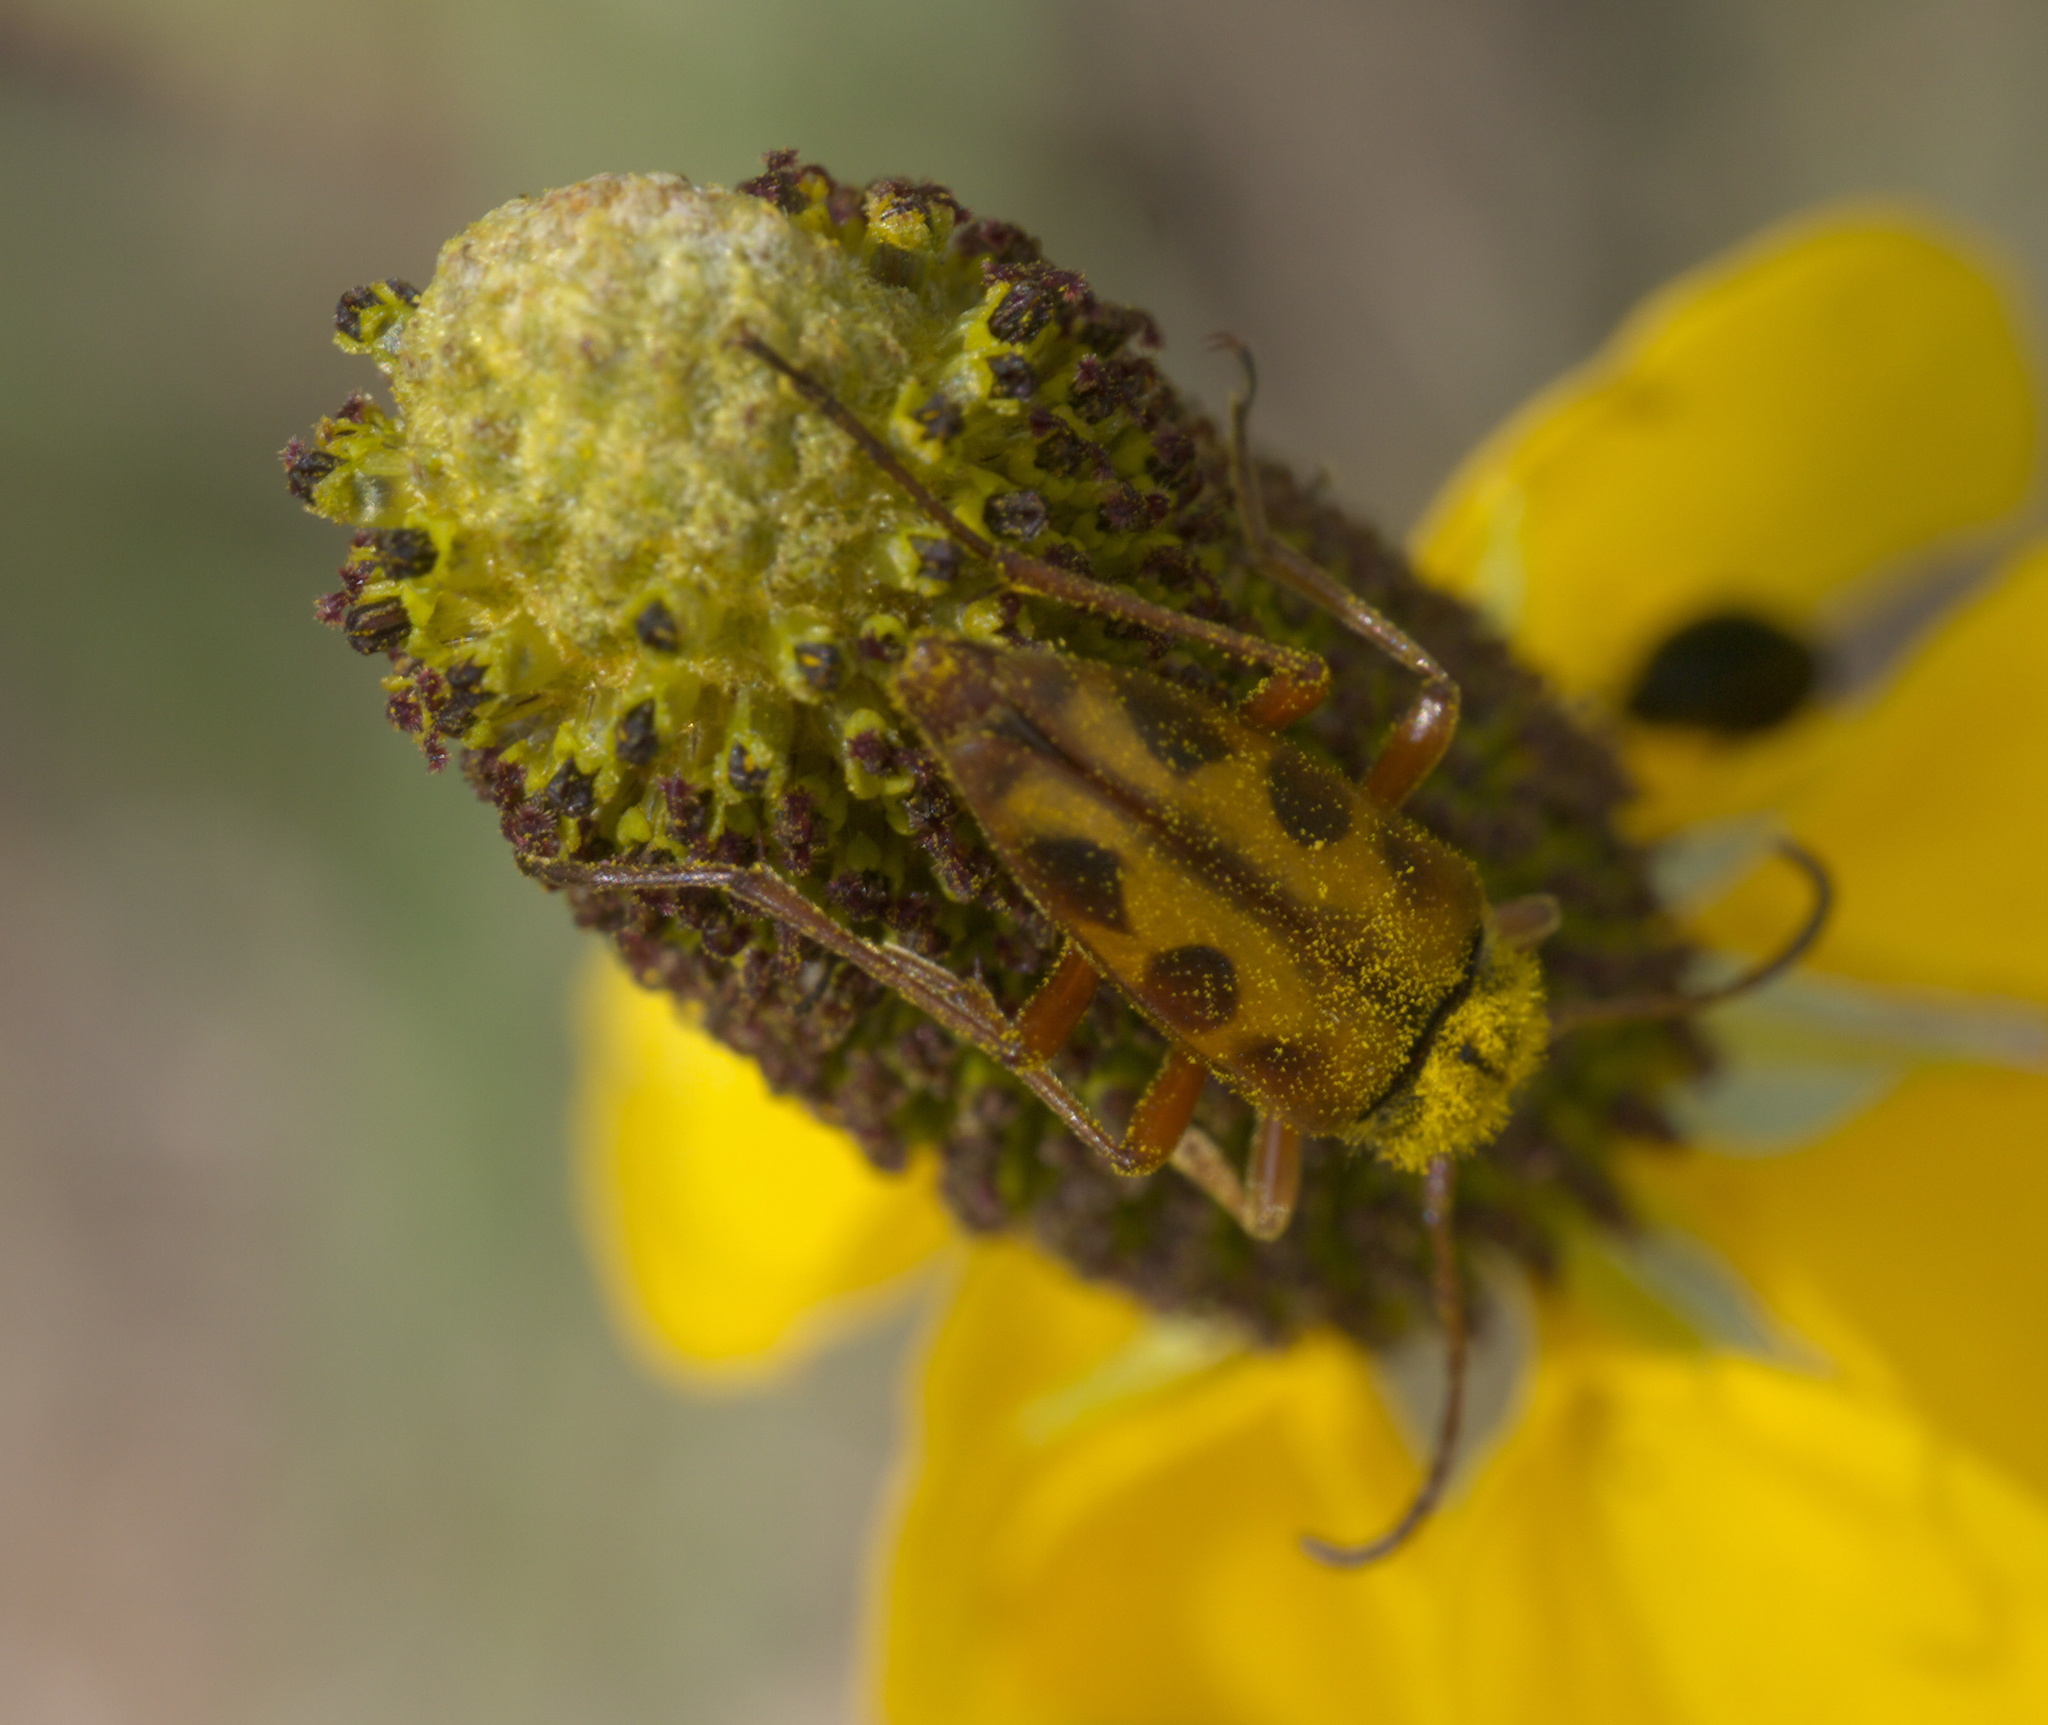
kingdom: Animalia
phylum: Arthropoda
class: Insecta
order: Coleoptera
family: Cerambycidae
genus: Typocerus
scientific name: Typocerus octonotatus
